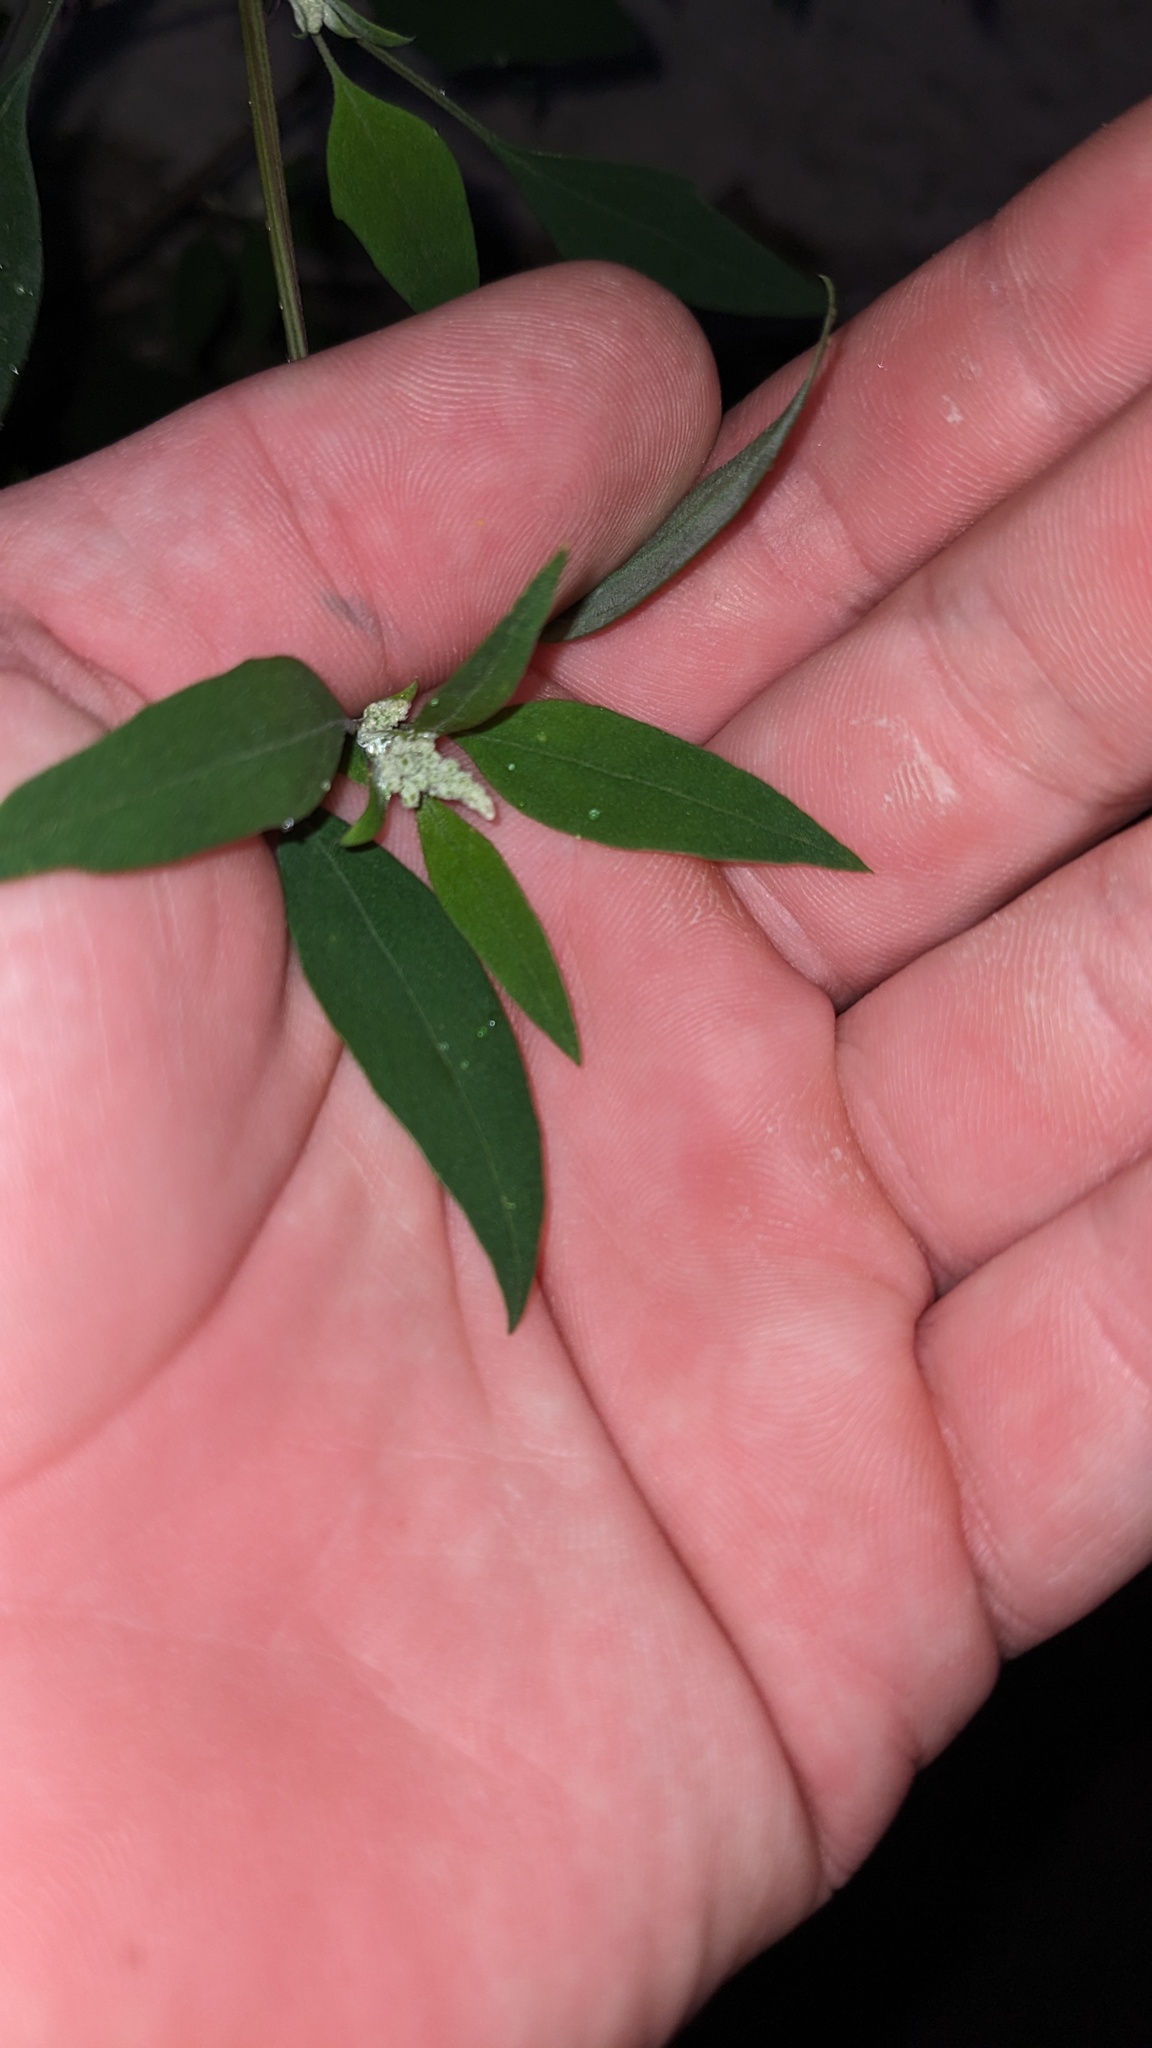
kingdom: Animalia
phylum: Arthropoda
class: Insecta
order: Lepidoptera
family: Gelechiidae
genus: Chrysoesthia
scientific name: Chrysoesthia sexguttella
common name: Moth
